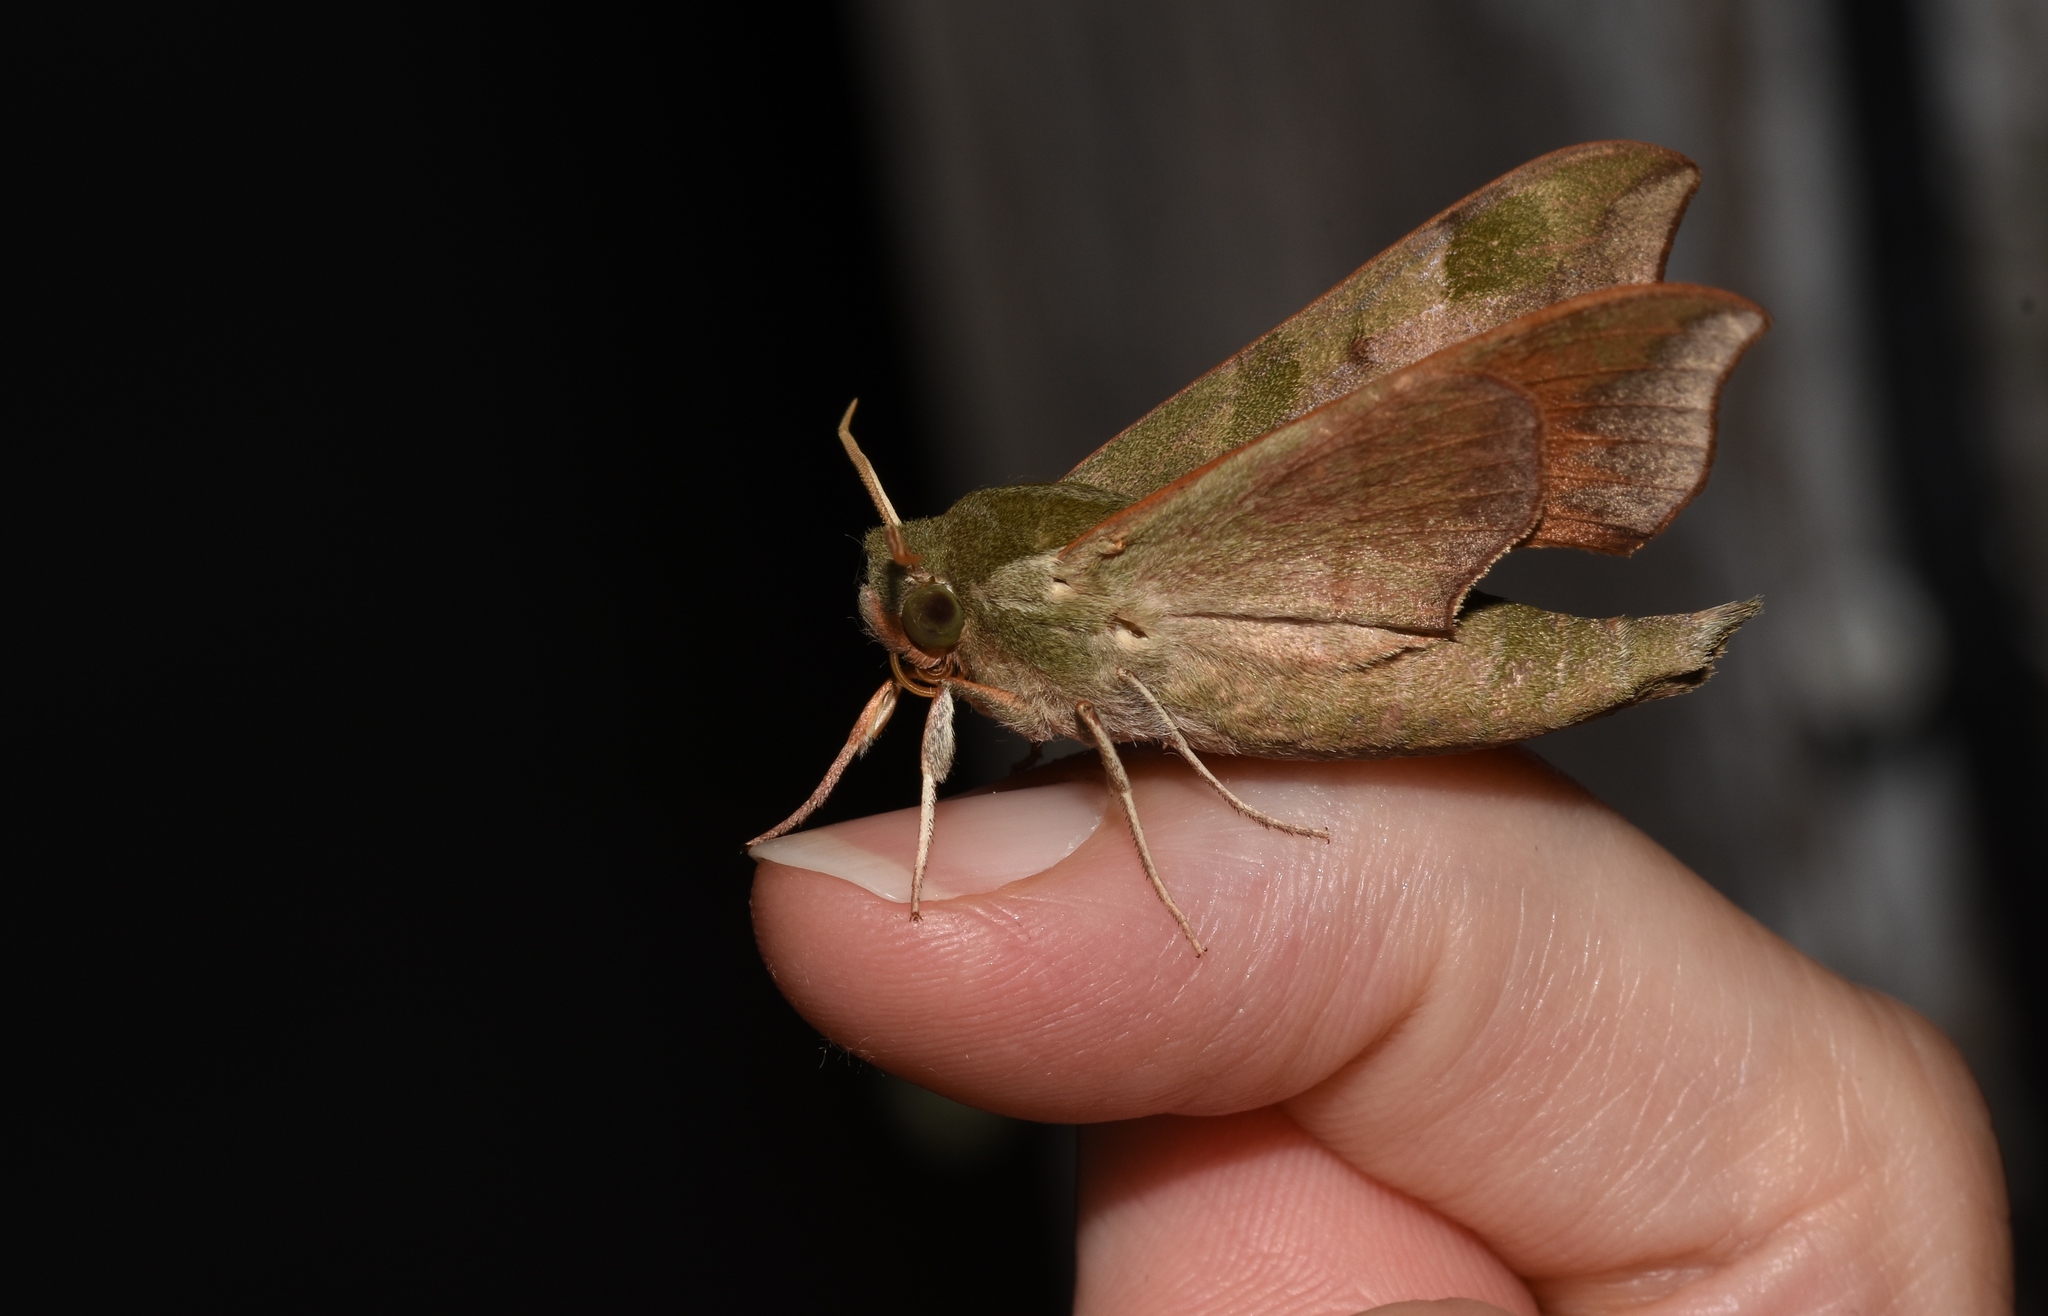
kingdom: Animalia
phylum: Arthropoda
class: Insecta
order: Lepidoptera
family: Sphingidae
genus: Darapsa
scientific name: Darapsa myron
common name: Hog sphinx
